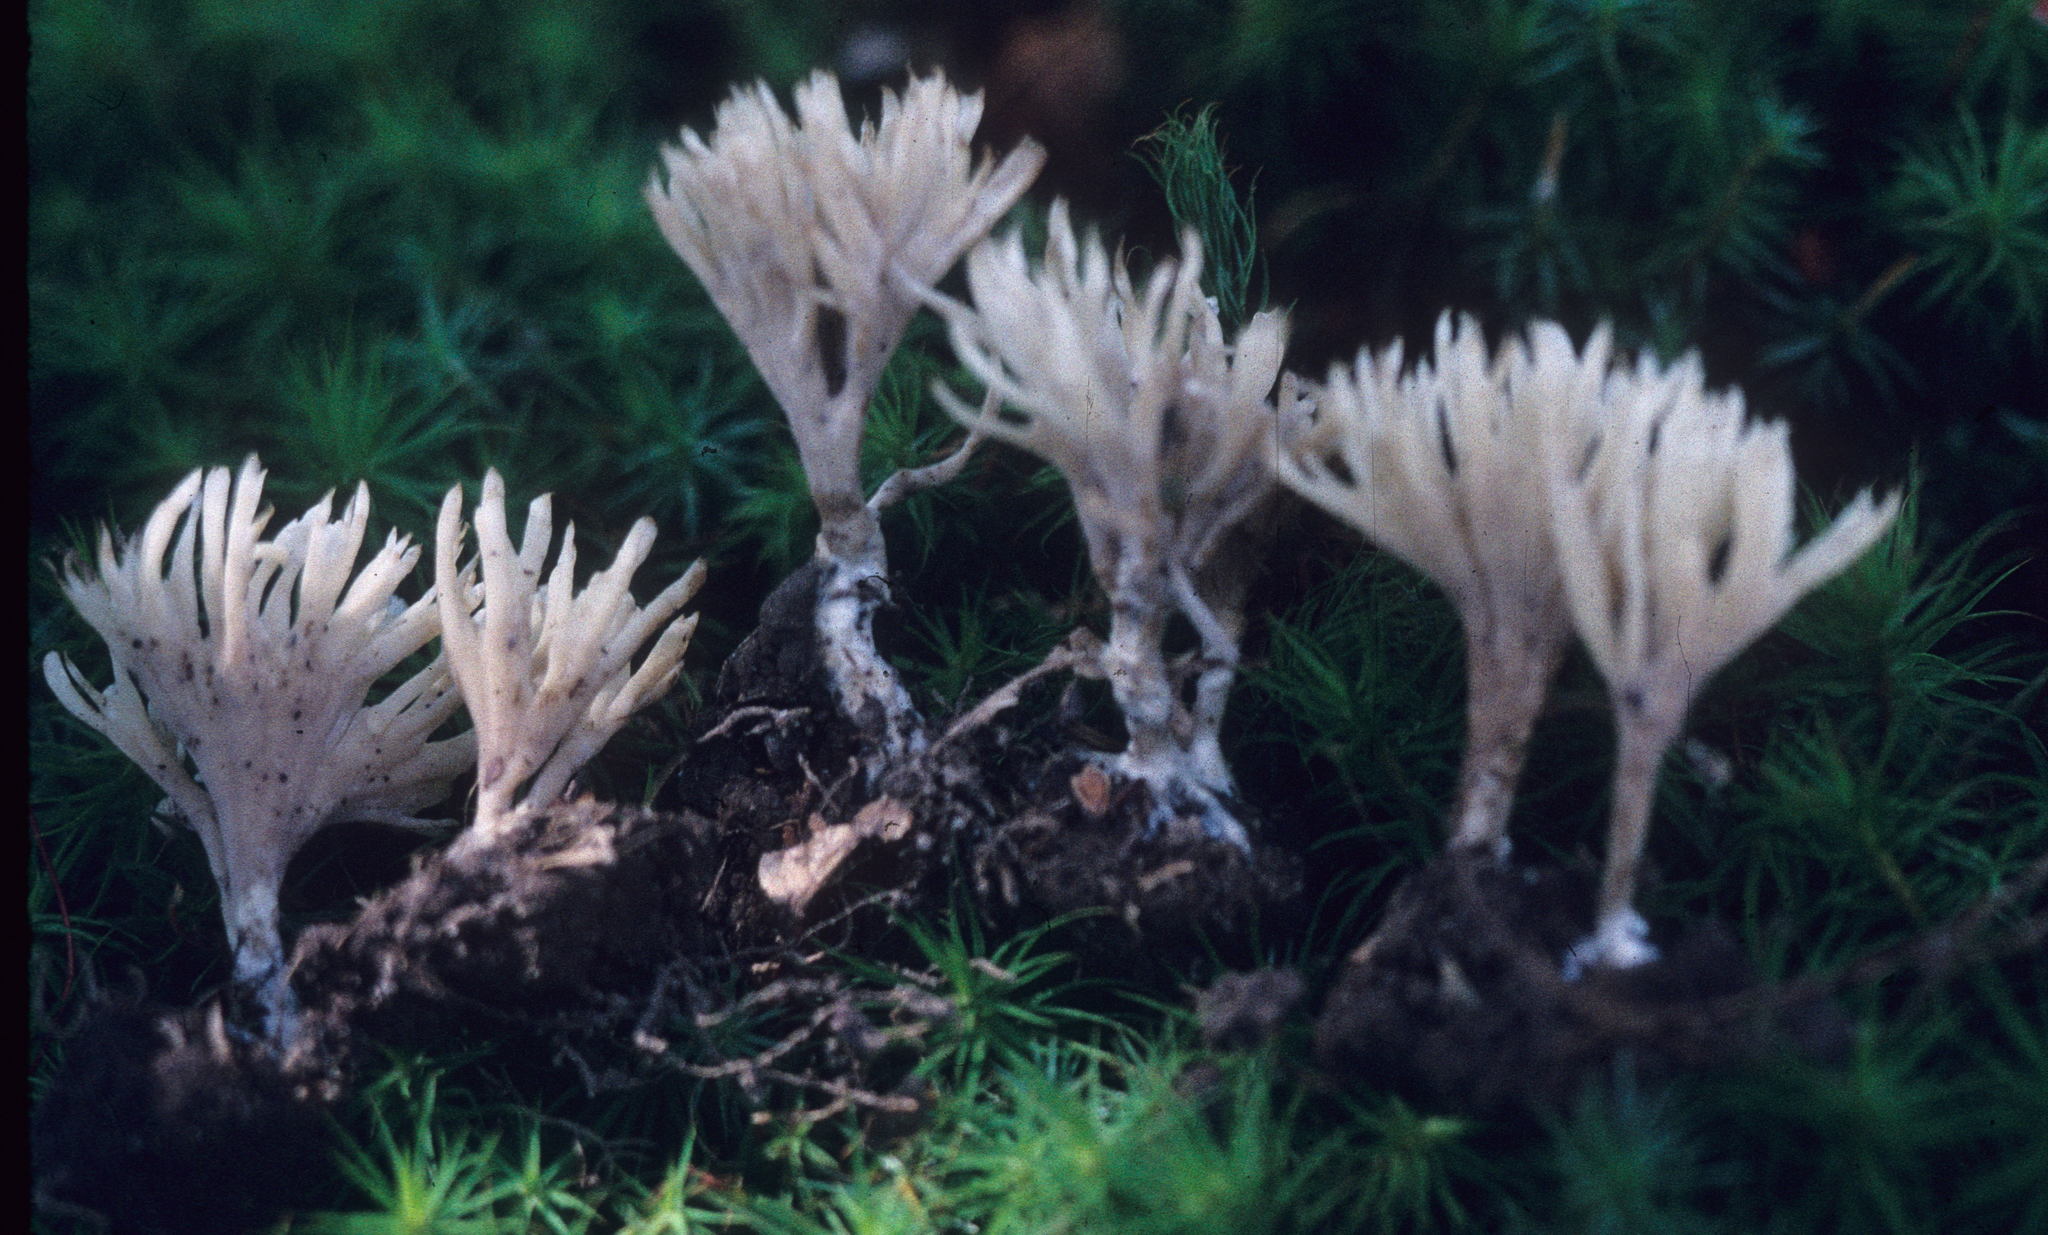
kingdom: Fungi
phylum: Basidiomycota
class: Agaricomycetes
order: Sebacinales
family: Sebacinaceae
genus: Tremellodendron
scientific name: Tremellodendron tenue
